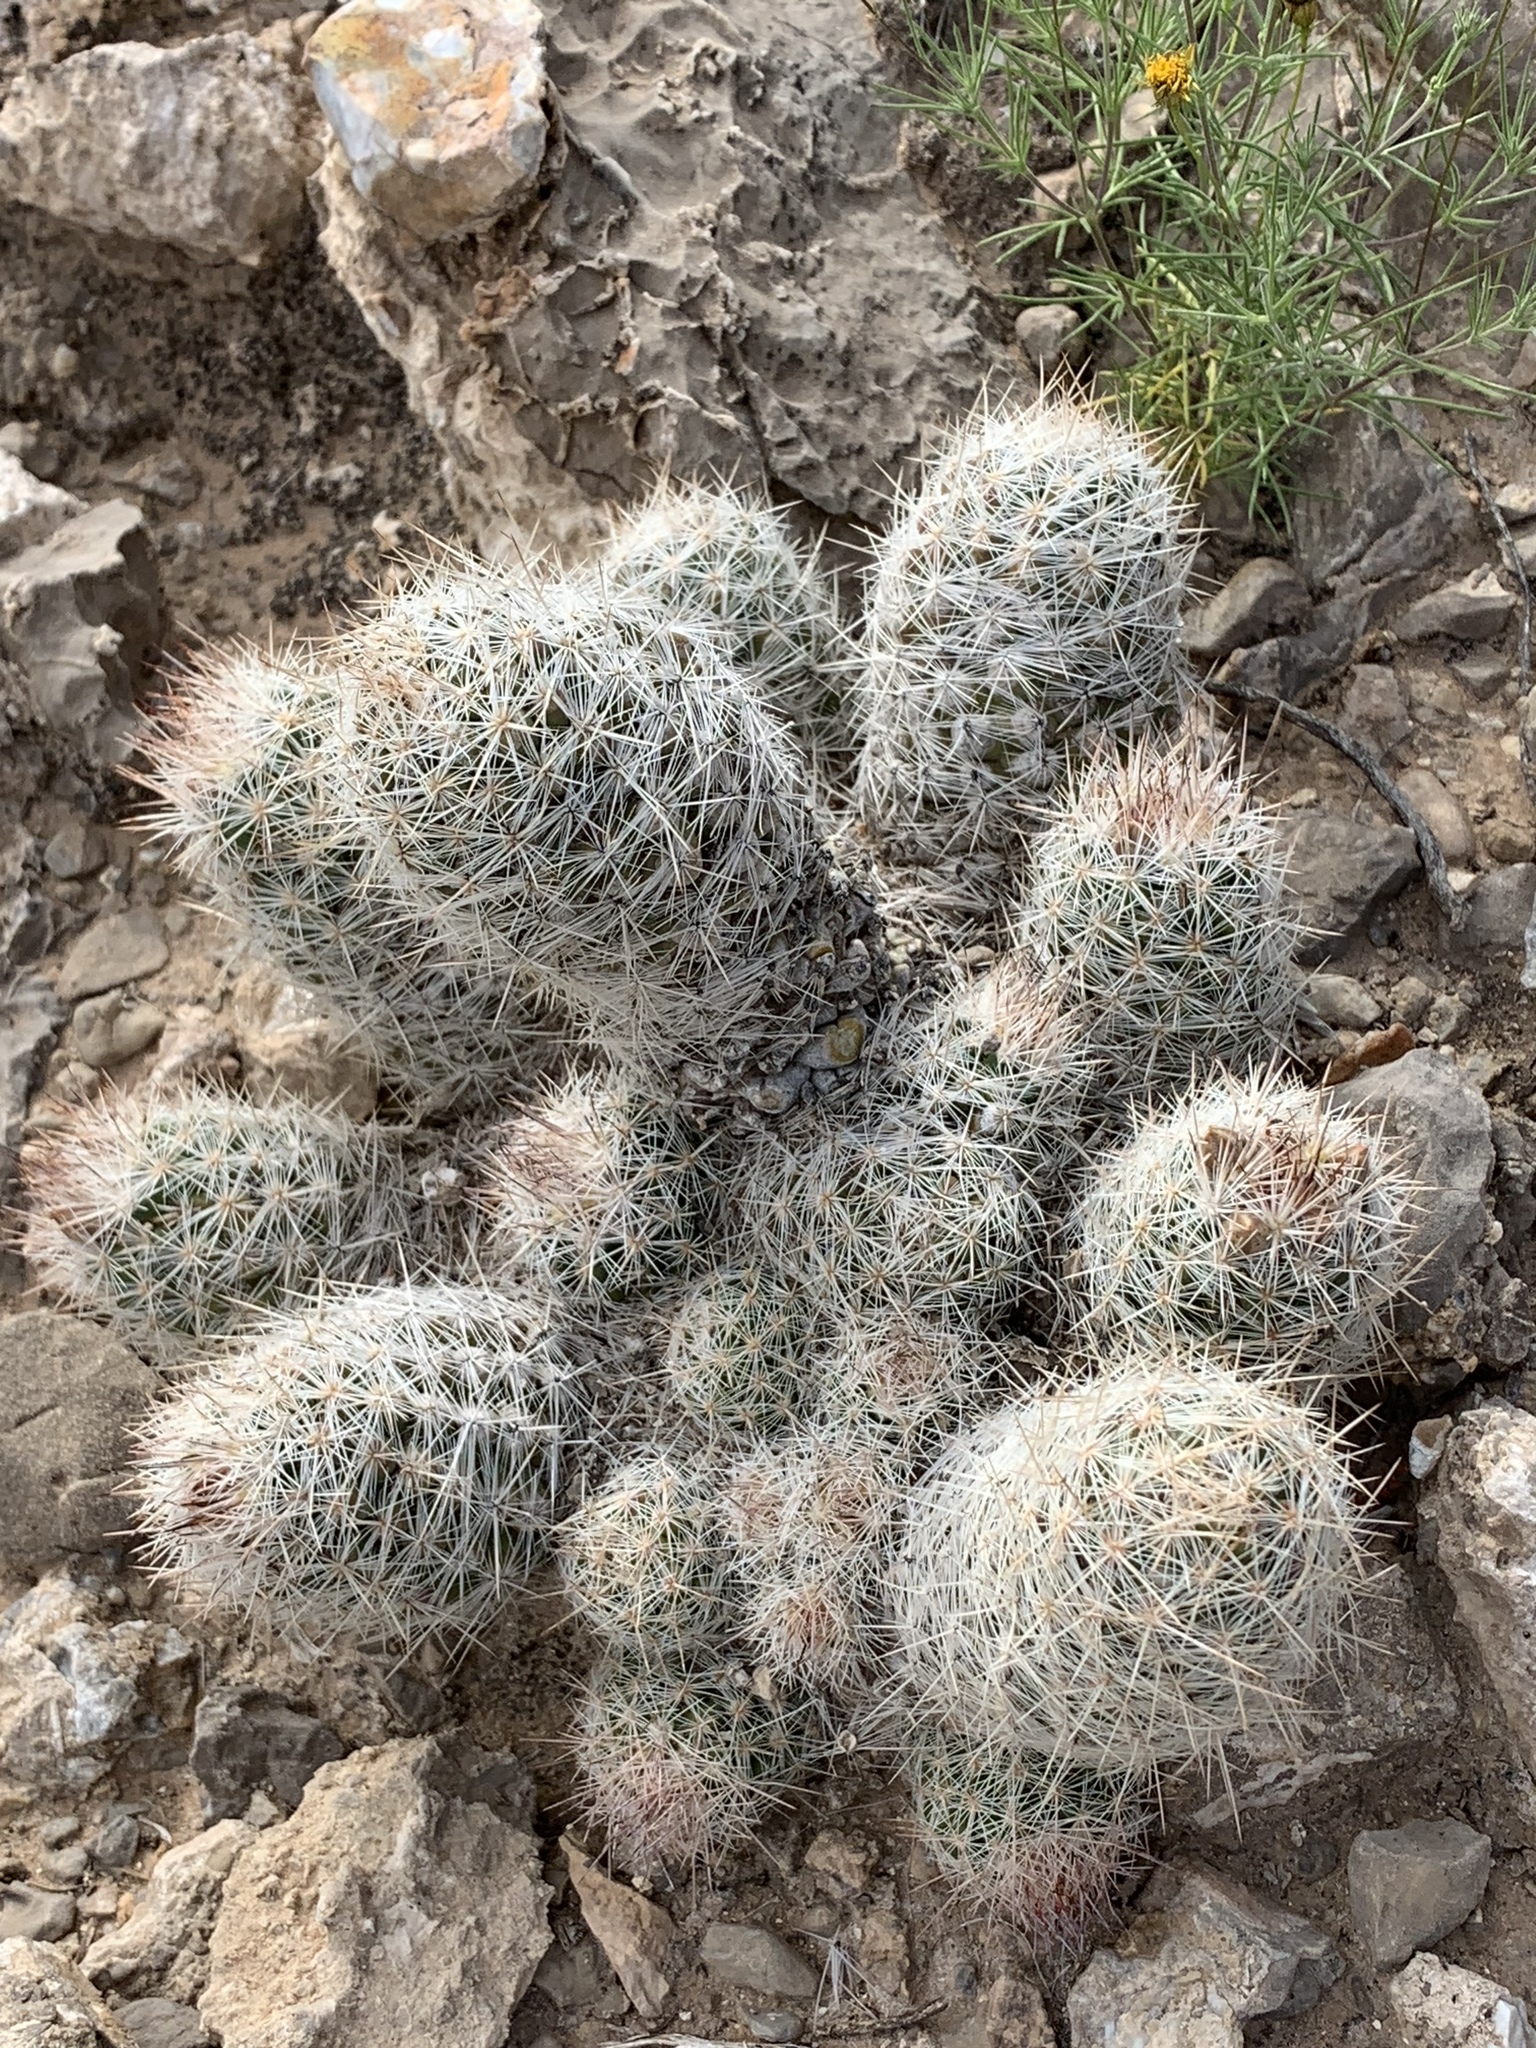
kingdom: Plantae
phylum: Tracheophyta
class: Magnoliopsida
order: Caryophyllales
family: Cactaceae
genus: Pelecyphora
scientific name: Pelecyphora tuberculosa
